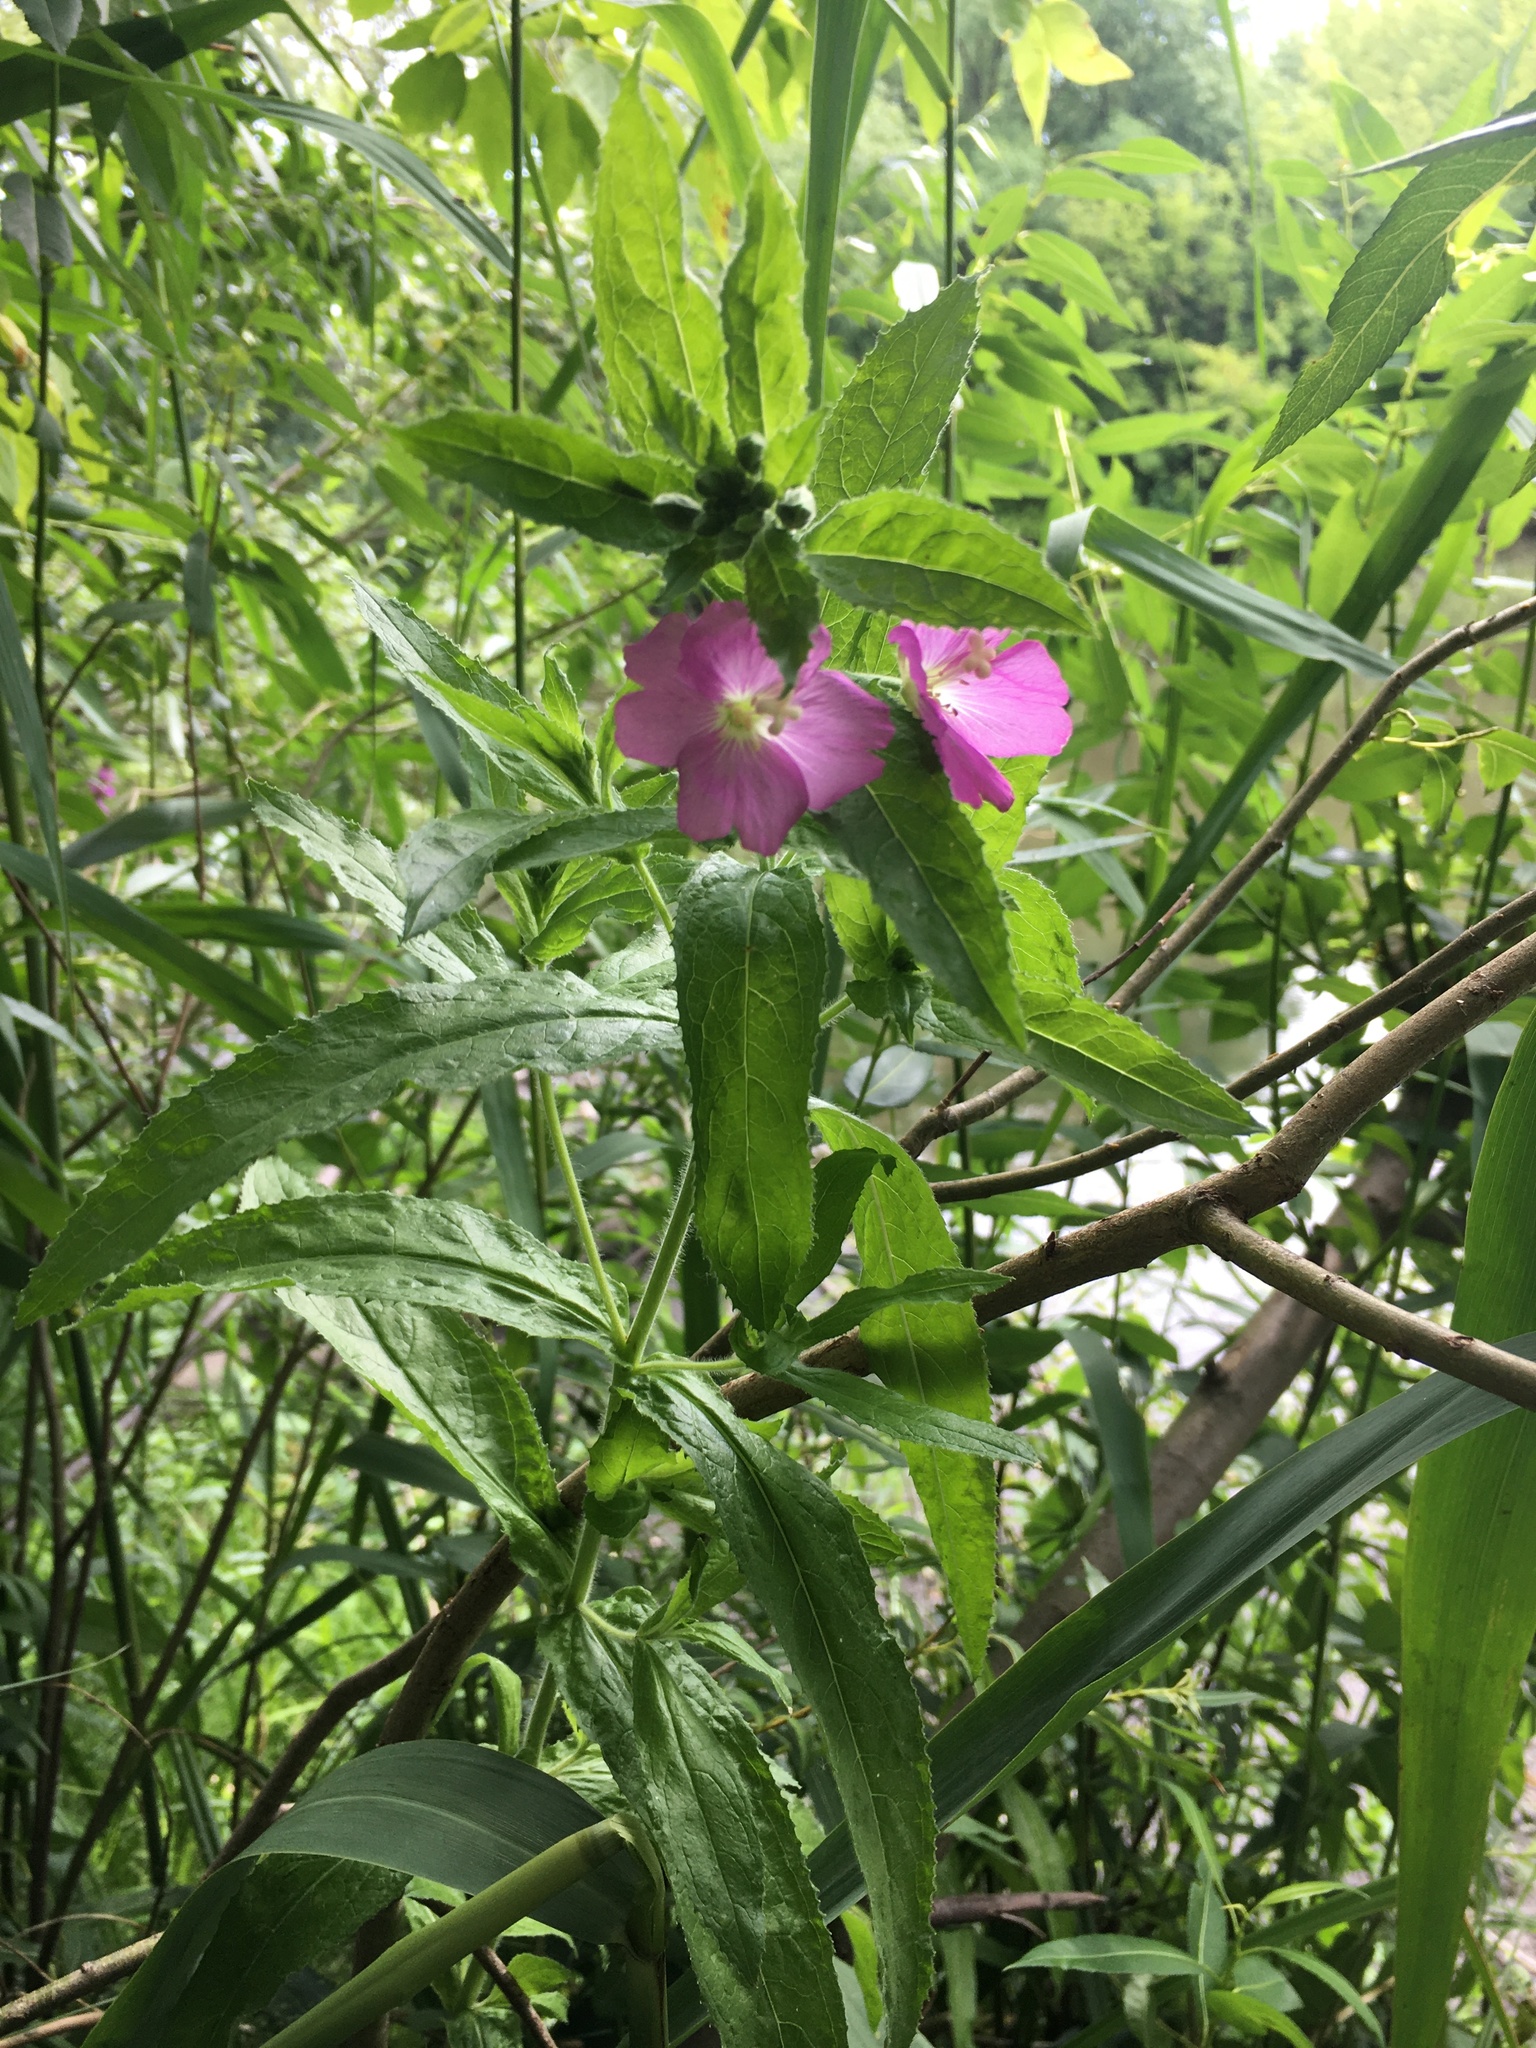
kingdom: Plantae
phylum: Tracheophyta
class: Magnoliopsida
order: Myrtales
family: Onagraceae
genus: Epilobium
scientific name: Epilobium hirsutum
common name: Great willowherb
